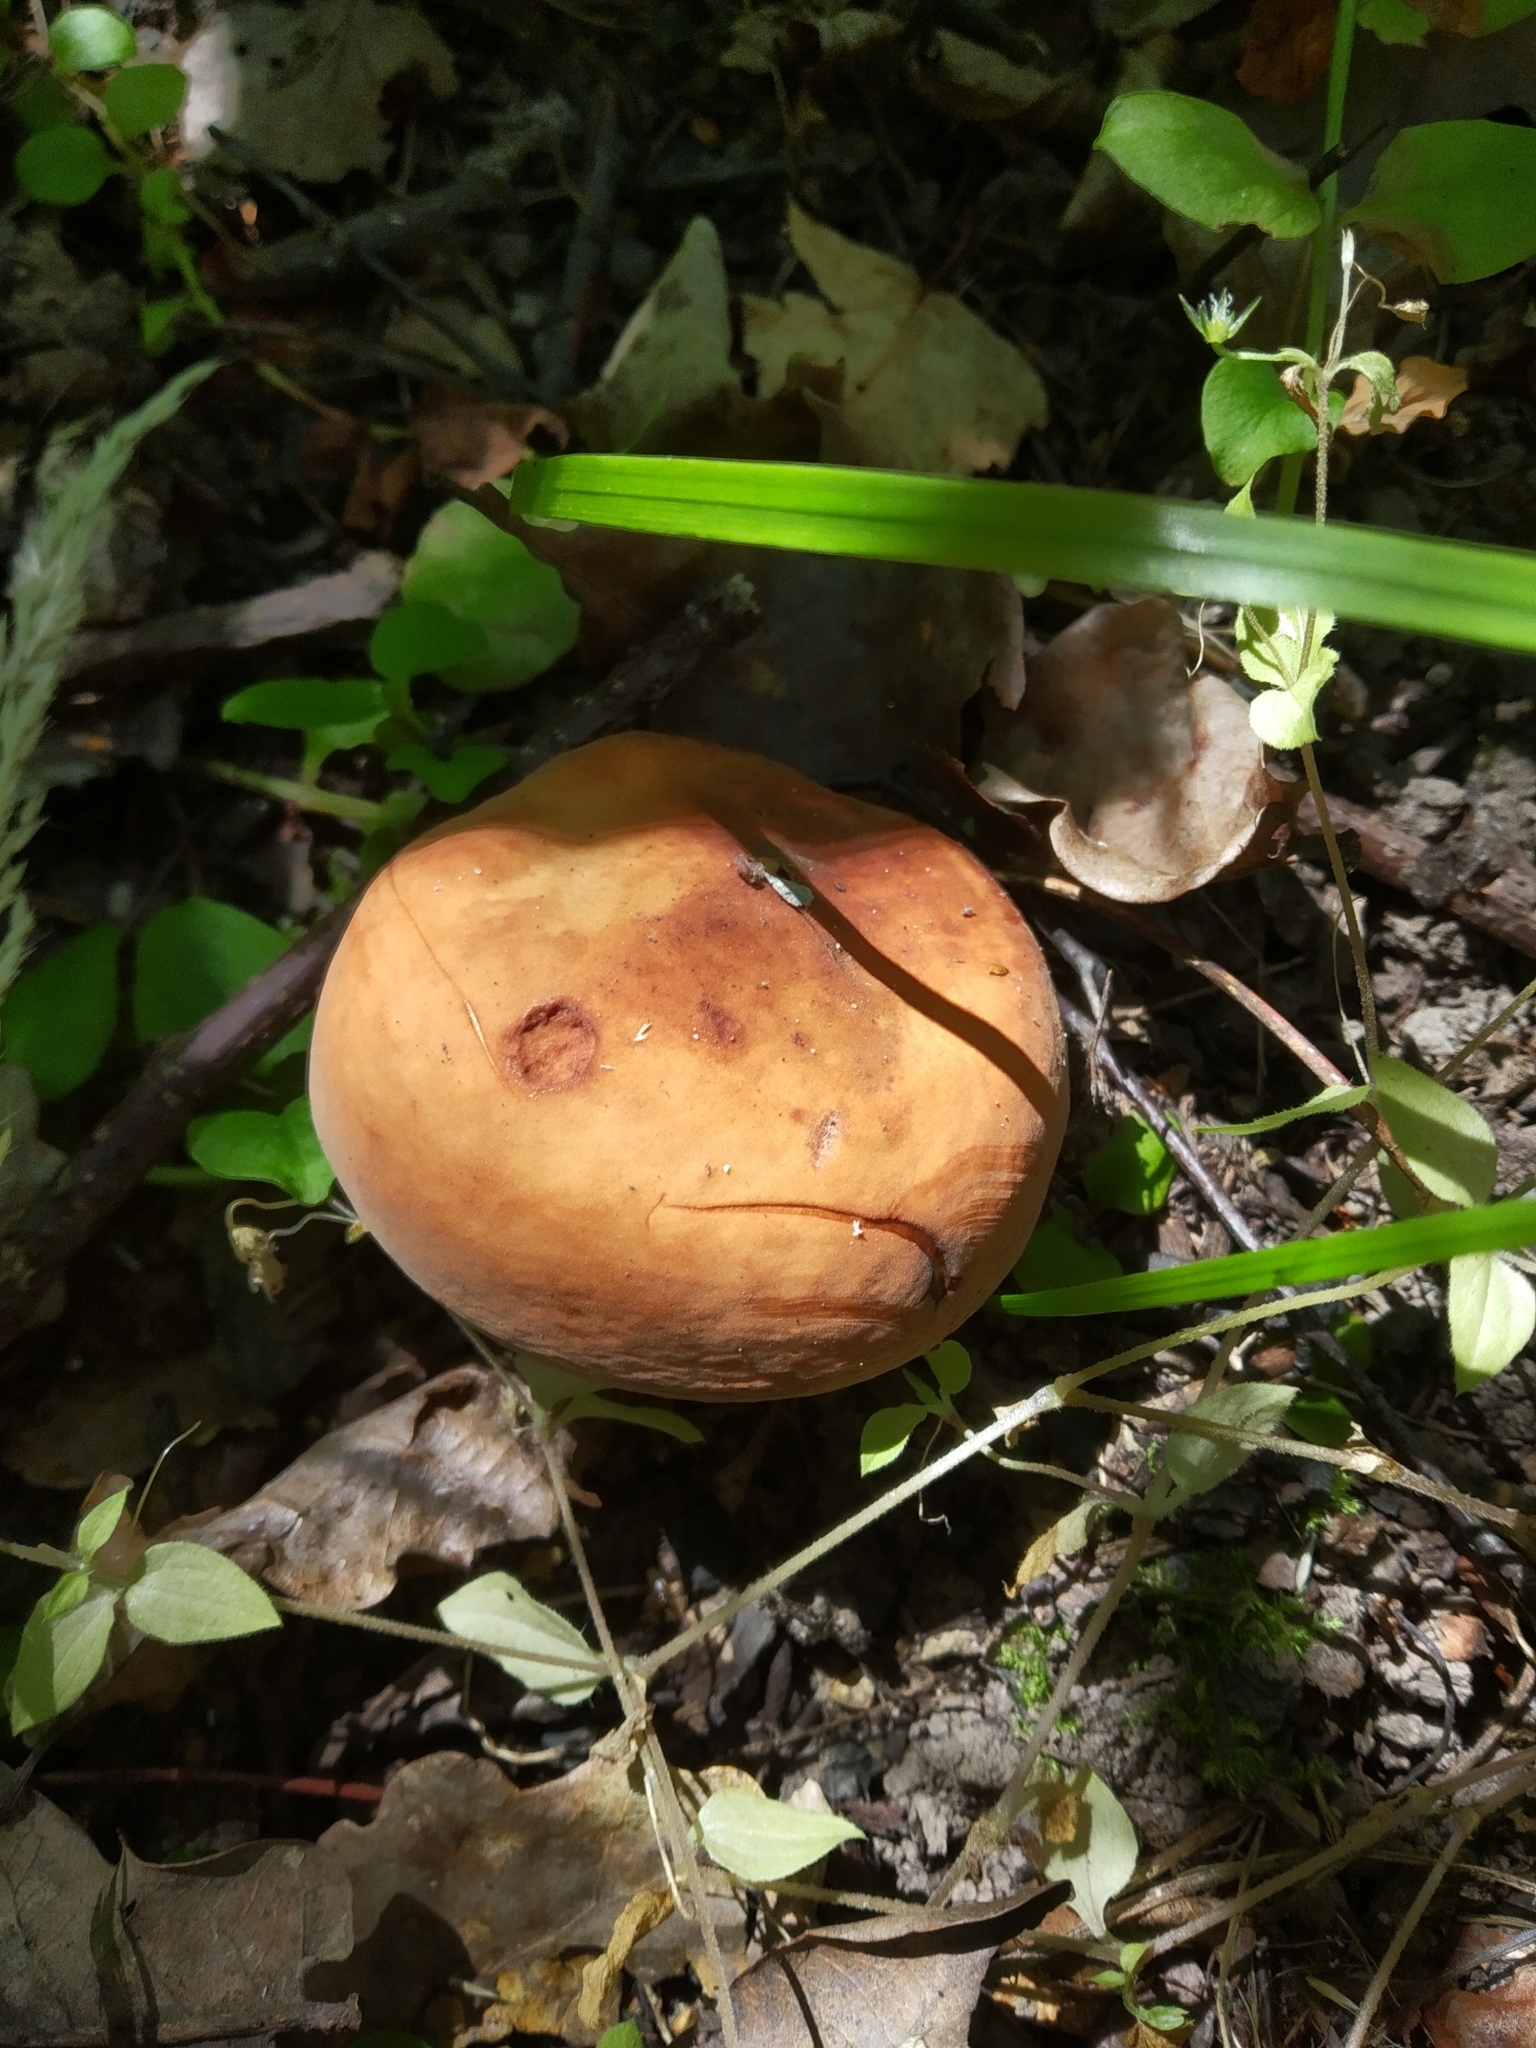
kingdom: Fungi
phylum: Basidiomycota
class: Agaricomycetes
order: Russulales
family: Russulaceae
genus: Lactifluus
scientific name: Lactifluus volemus
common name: Fishy milkcap
